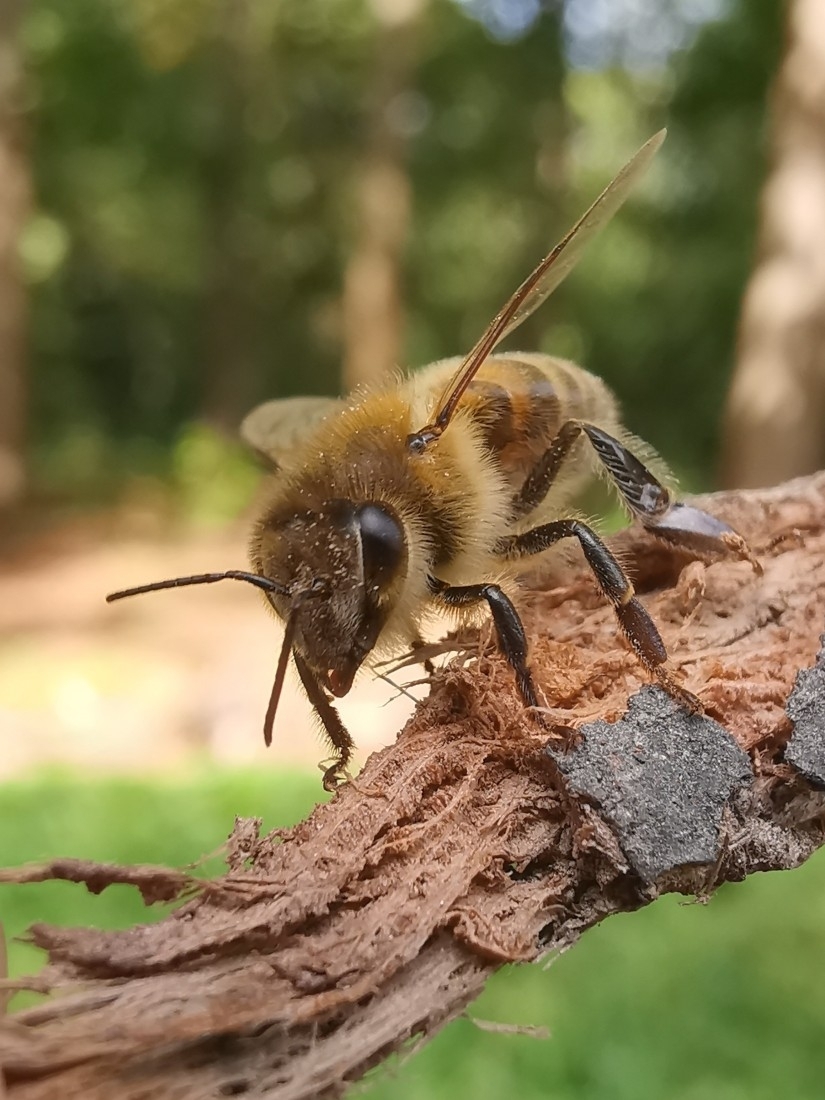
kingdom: Animalia
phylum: Arthropoda
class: Insecta
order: Hymenoptera
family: Apidae
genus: Apis
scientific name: Apis mellifera
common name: Honey bee
